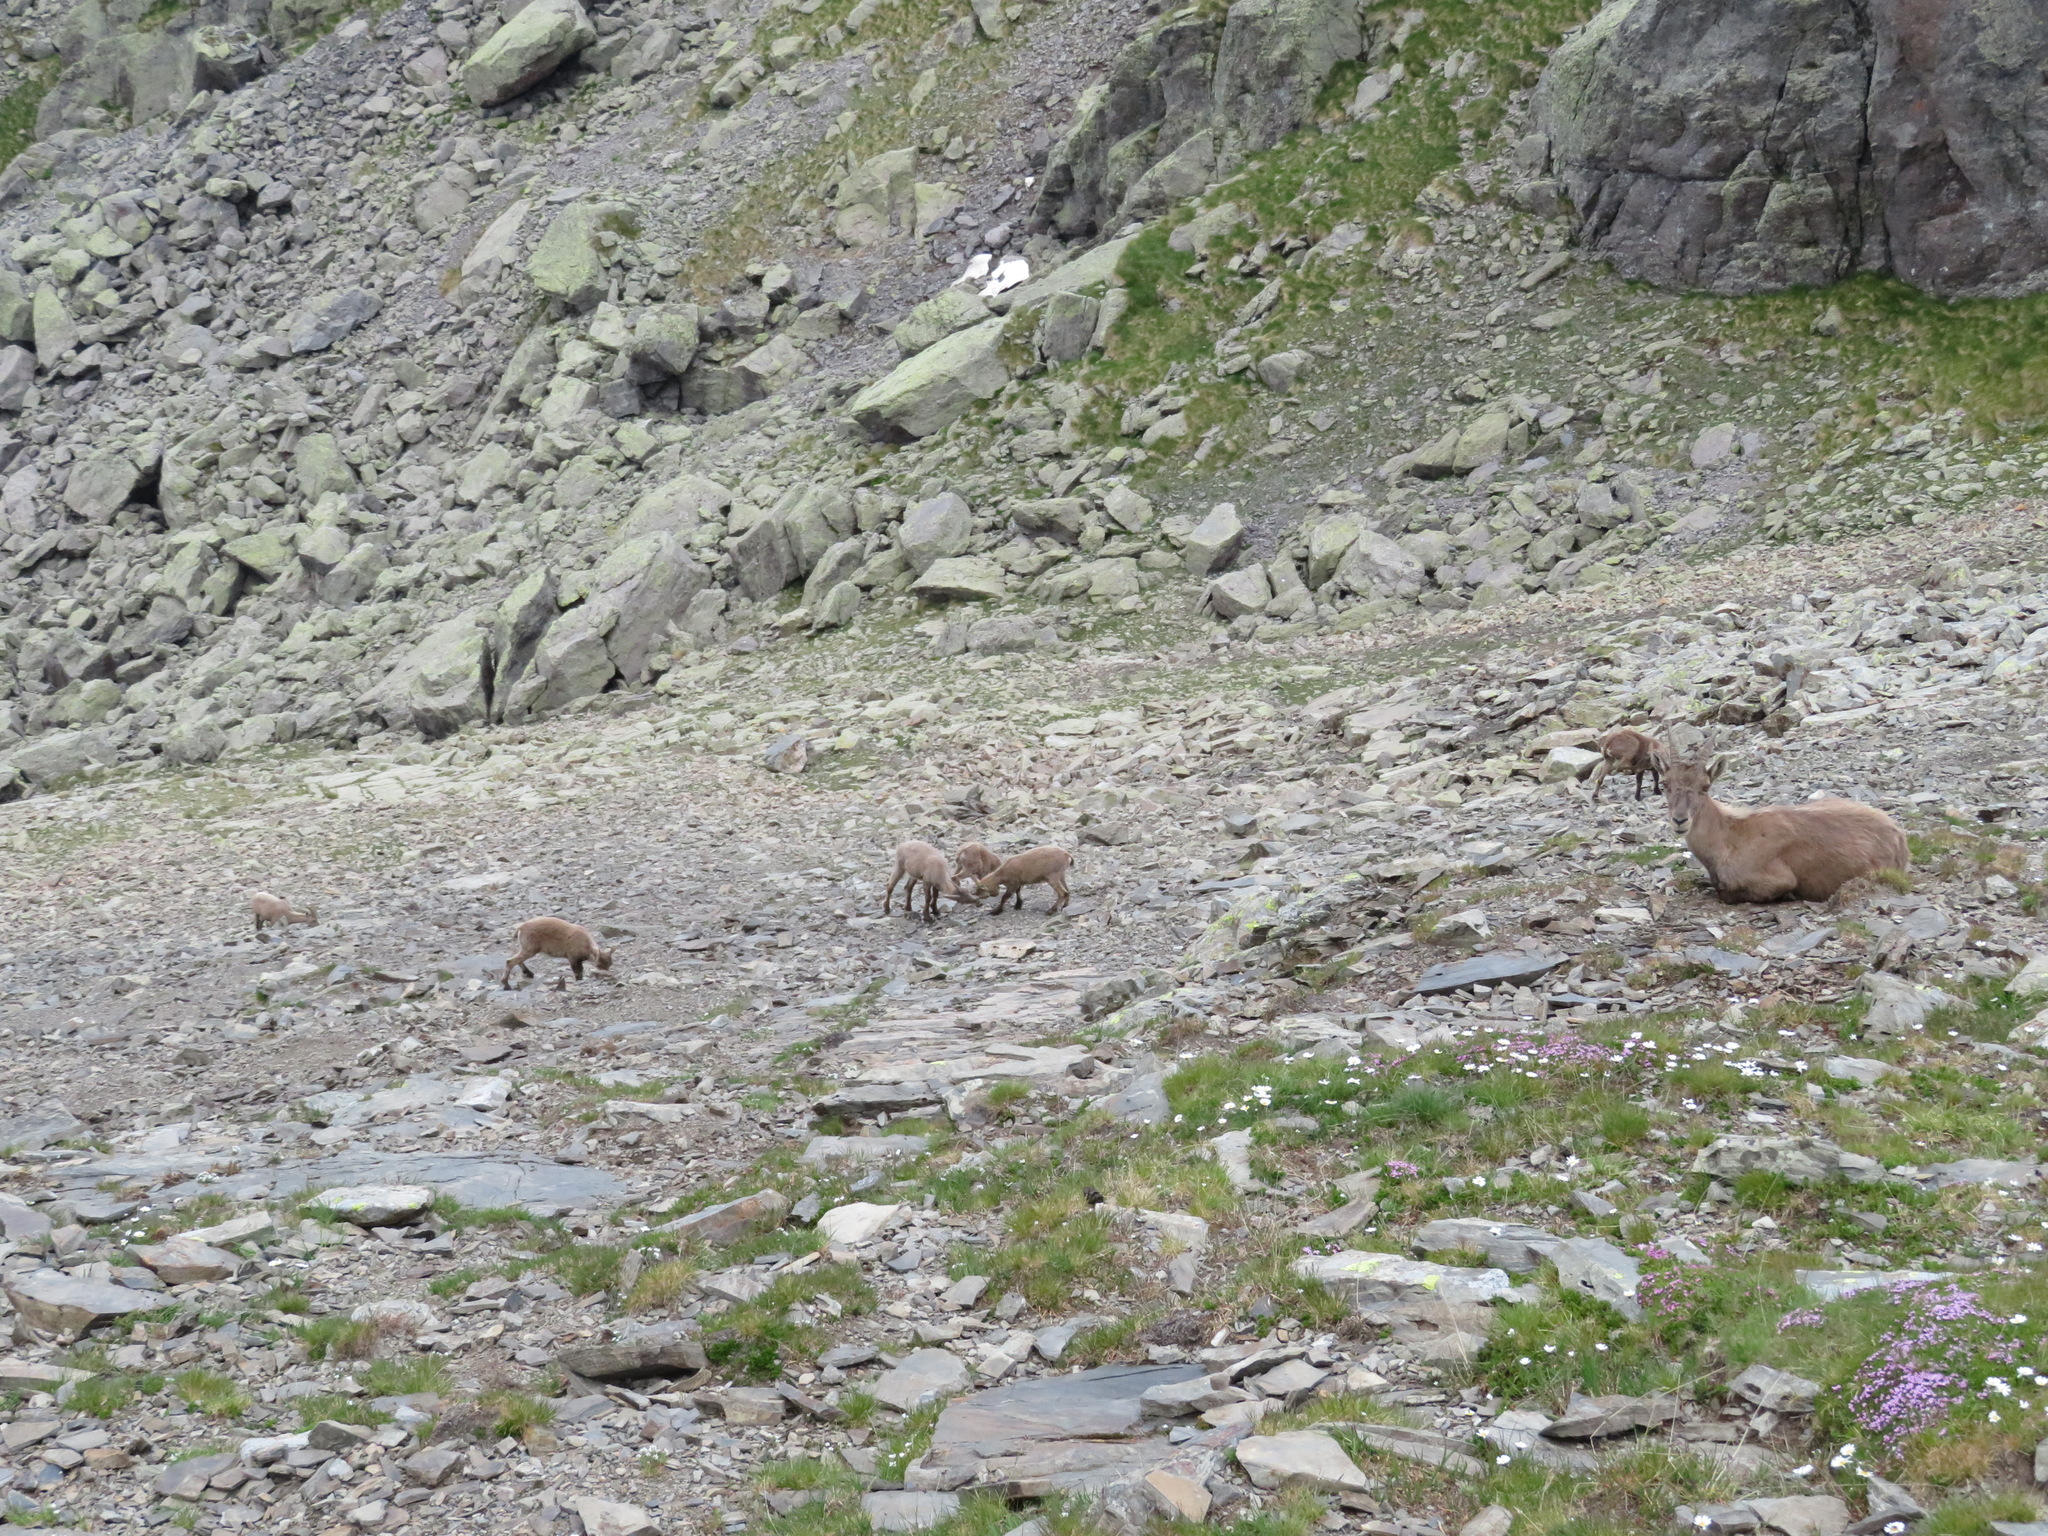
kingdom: Animalia
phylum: Chordata
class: Mammalia
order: Artiodactyla
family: Bovidae
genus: Capra
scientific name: Capra ibex
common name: Alpine ibex
